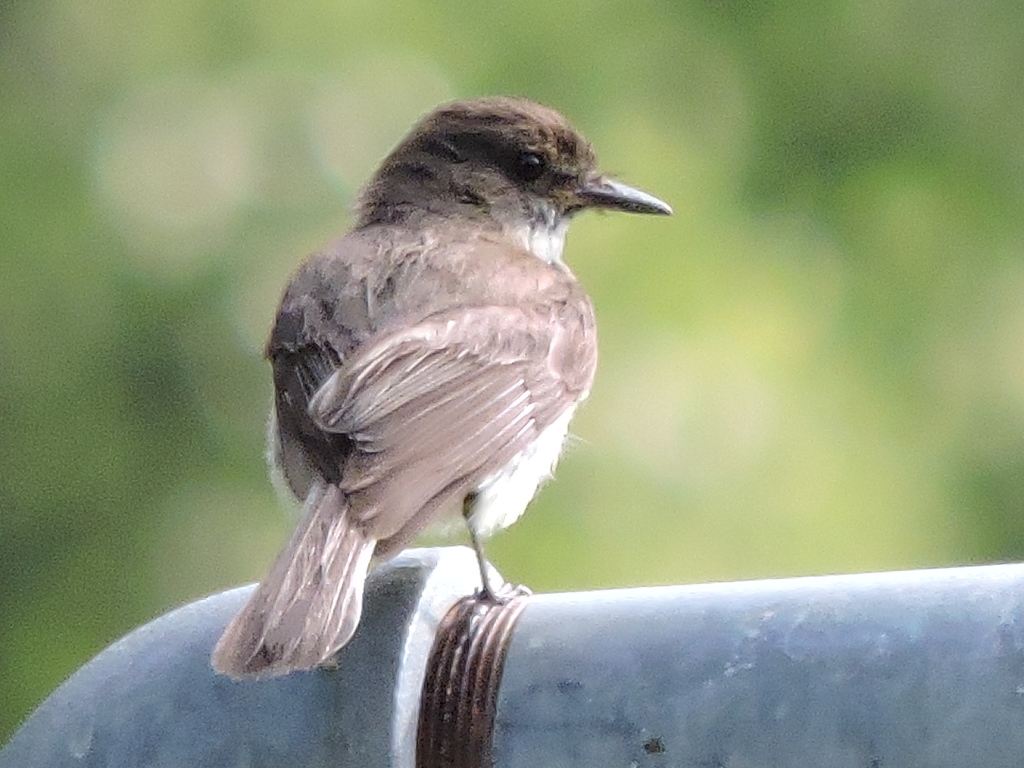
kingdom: Animalia
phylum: Chordata
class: Aves
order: Passeriformes
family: Tyrannidae
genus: Sayornis
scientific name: Sayornis phoebe
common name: Eastern phoebe
